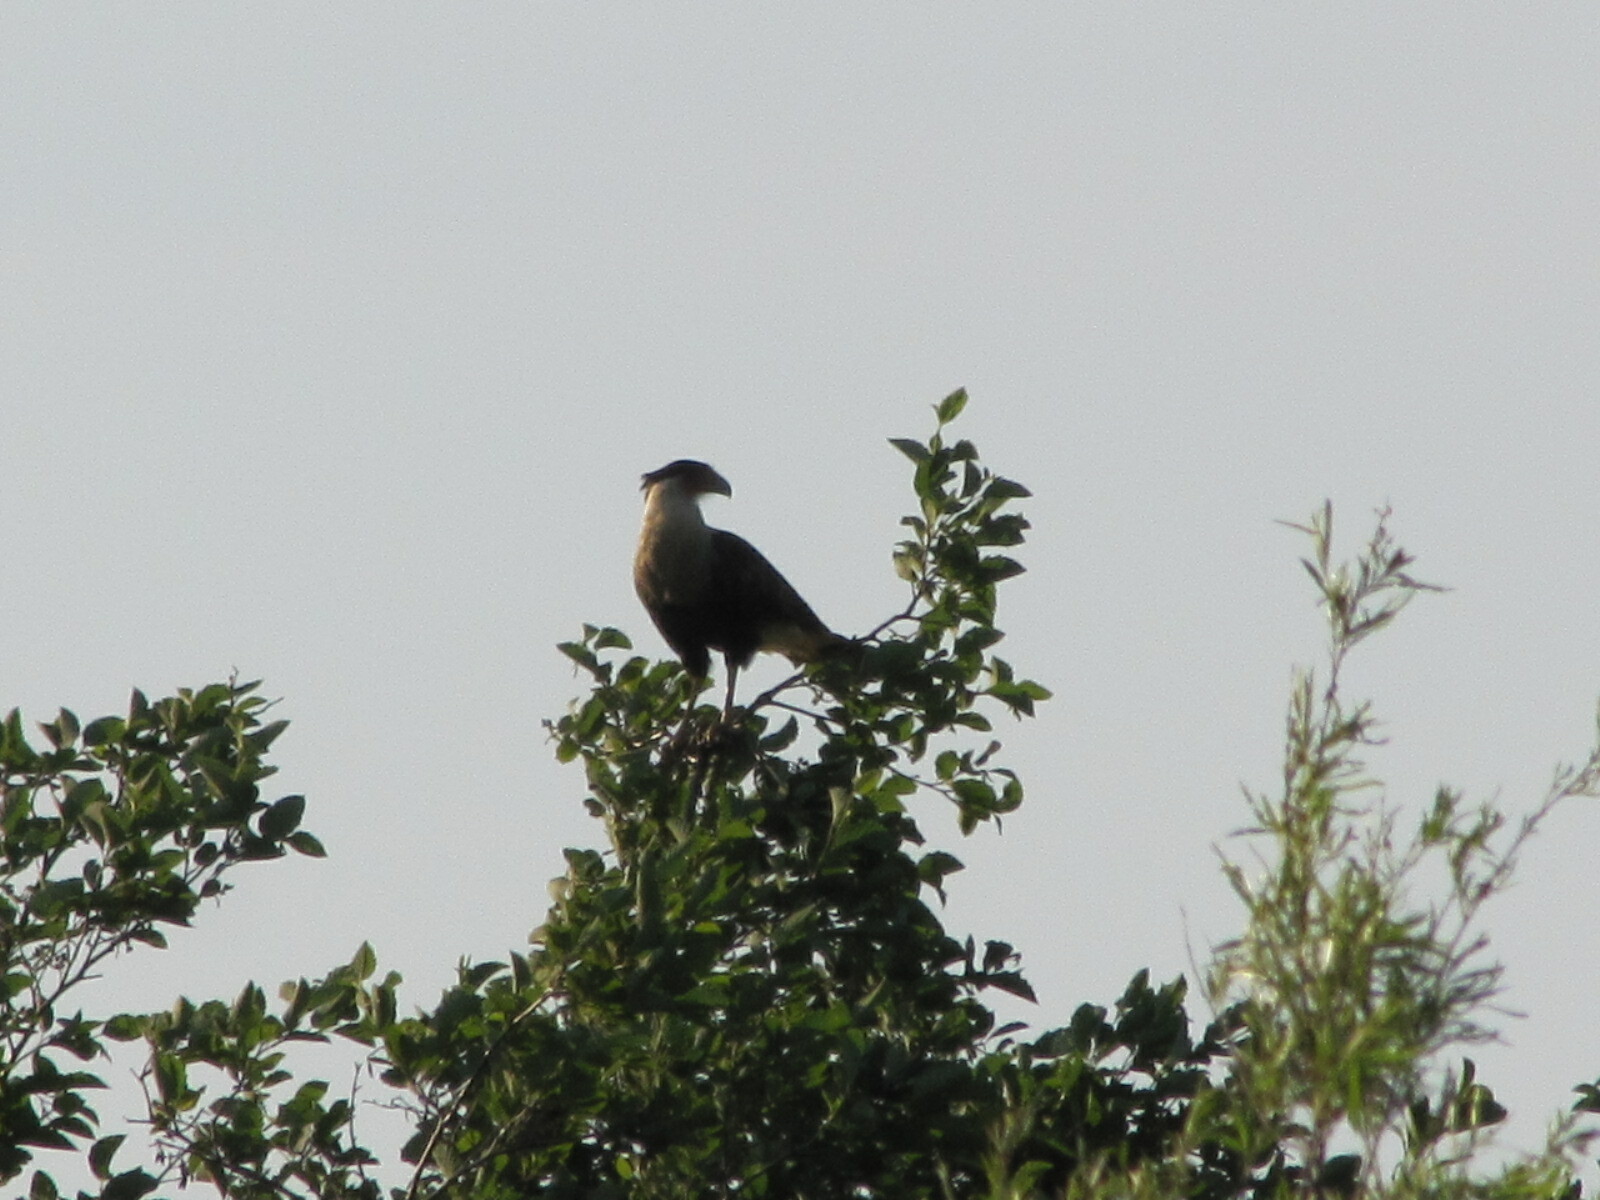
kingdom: Animalia
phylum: Chordata
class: Aves
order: Falconiformes
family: Falconidae
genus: Caracara
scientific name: Caracara plancus
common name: Southern caracara
